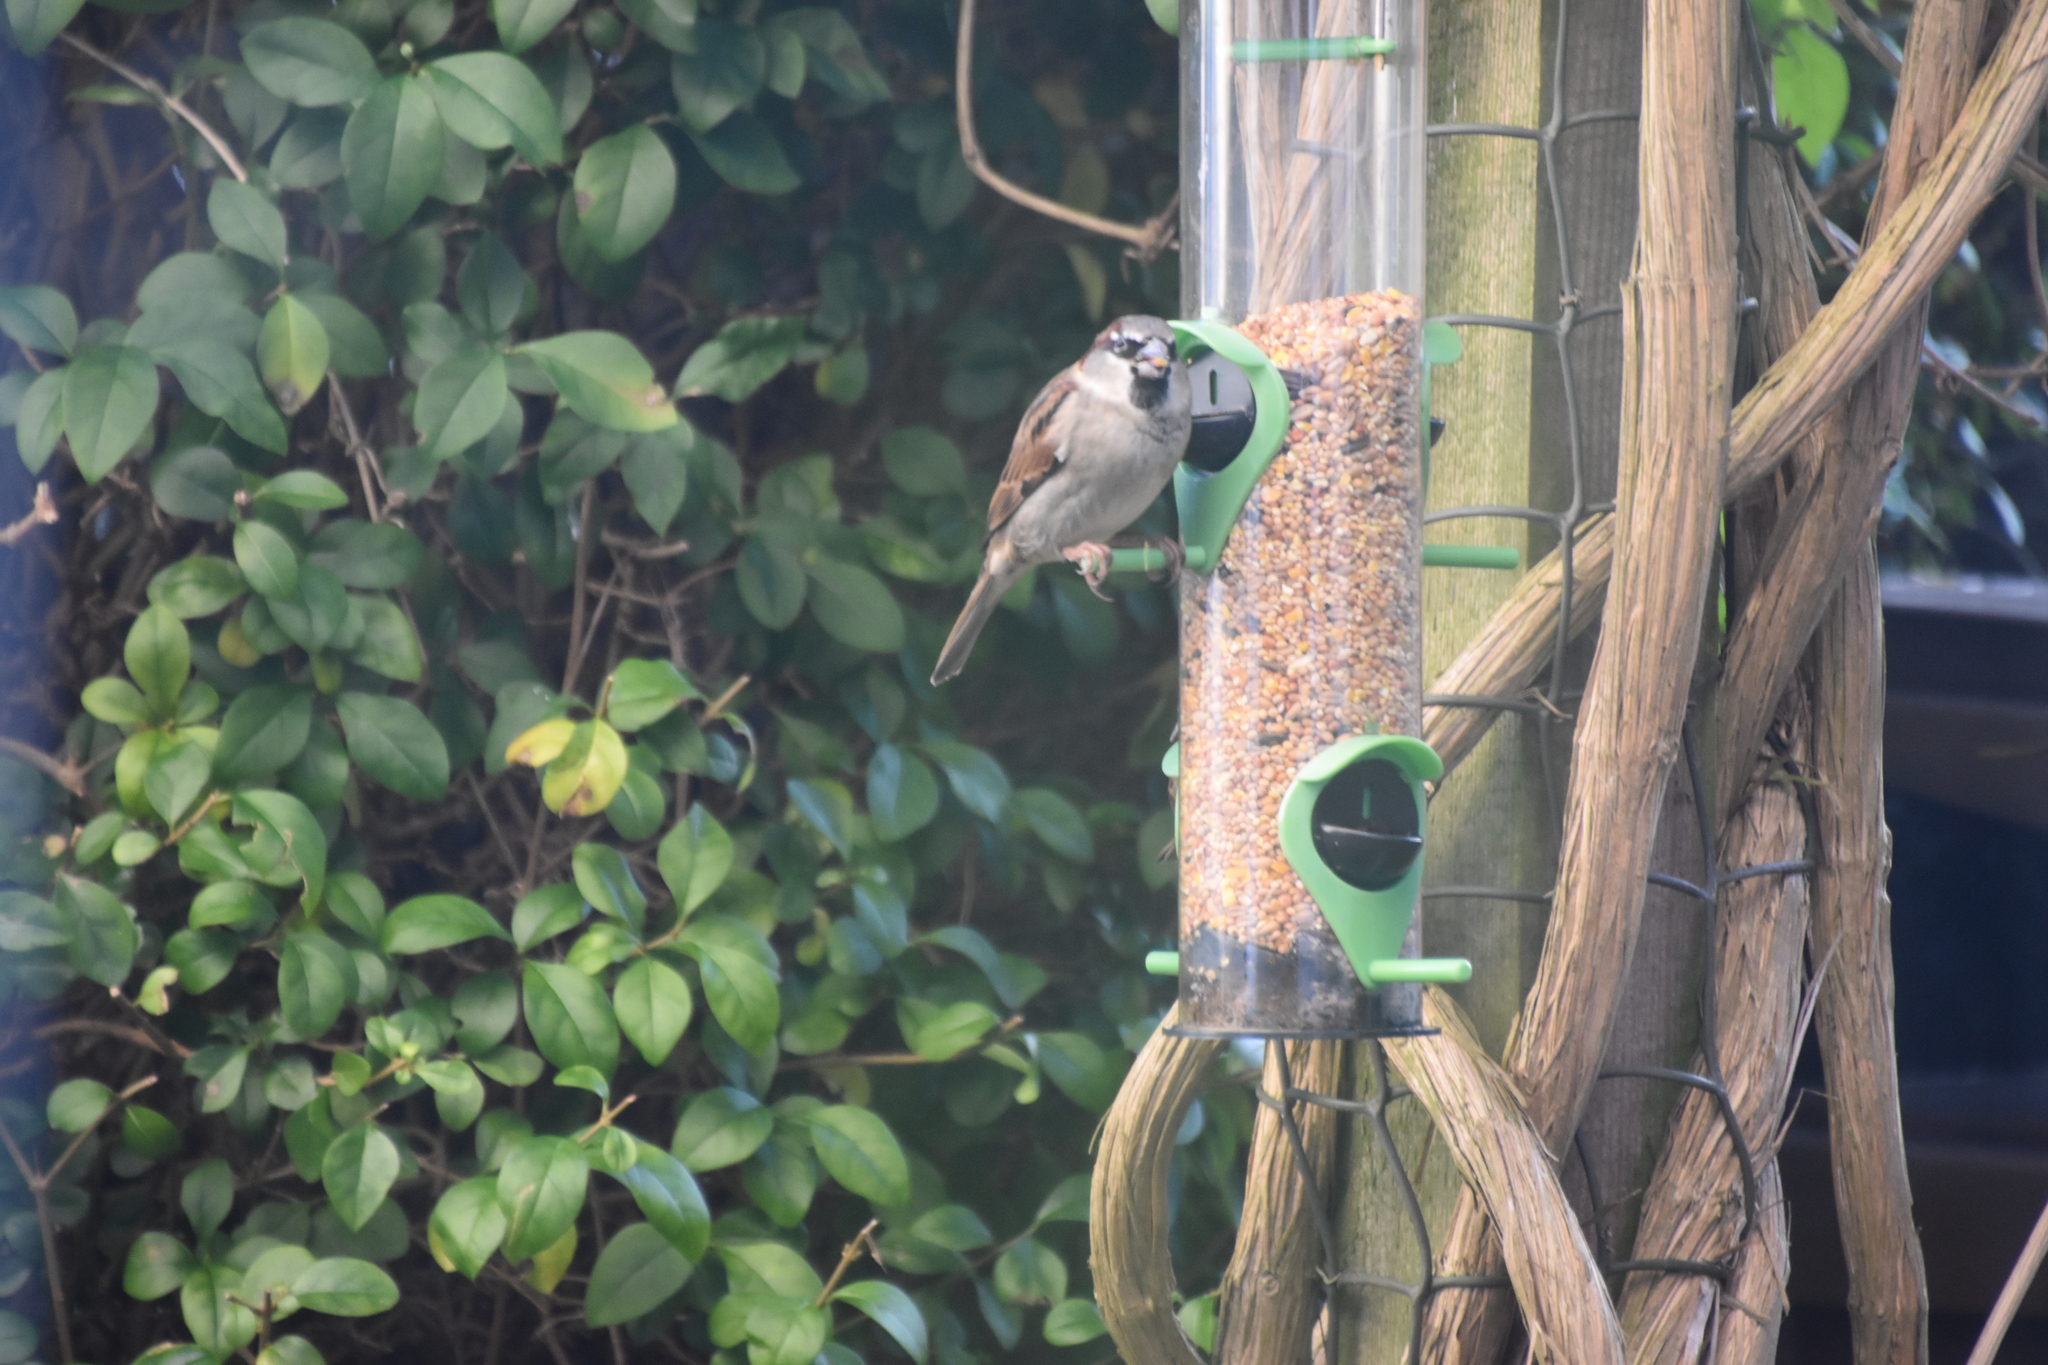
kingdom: Animalia
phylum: Chordata
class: Aves
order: Passeriformes
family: Passeridae
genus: Passer
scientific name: Passer domesticus
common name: House sparrow
